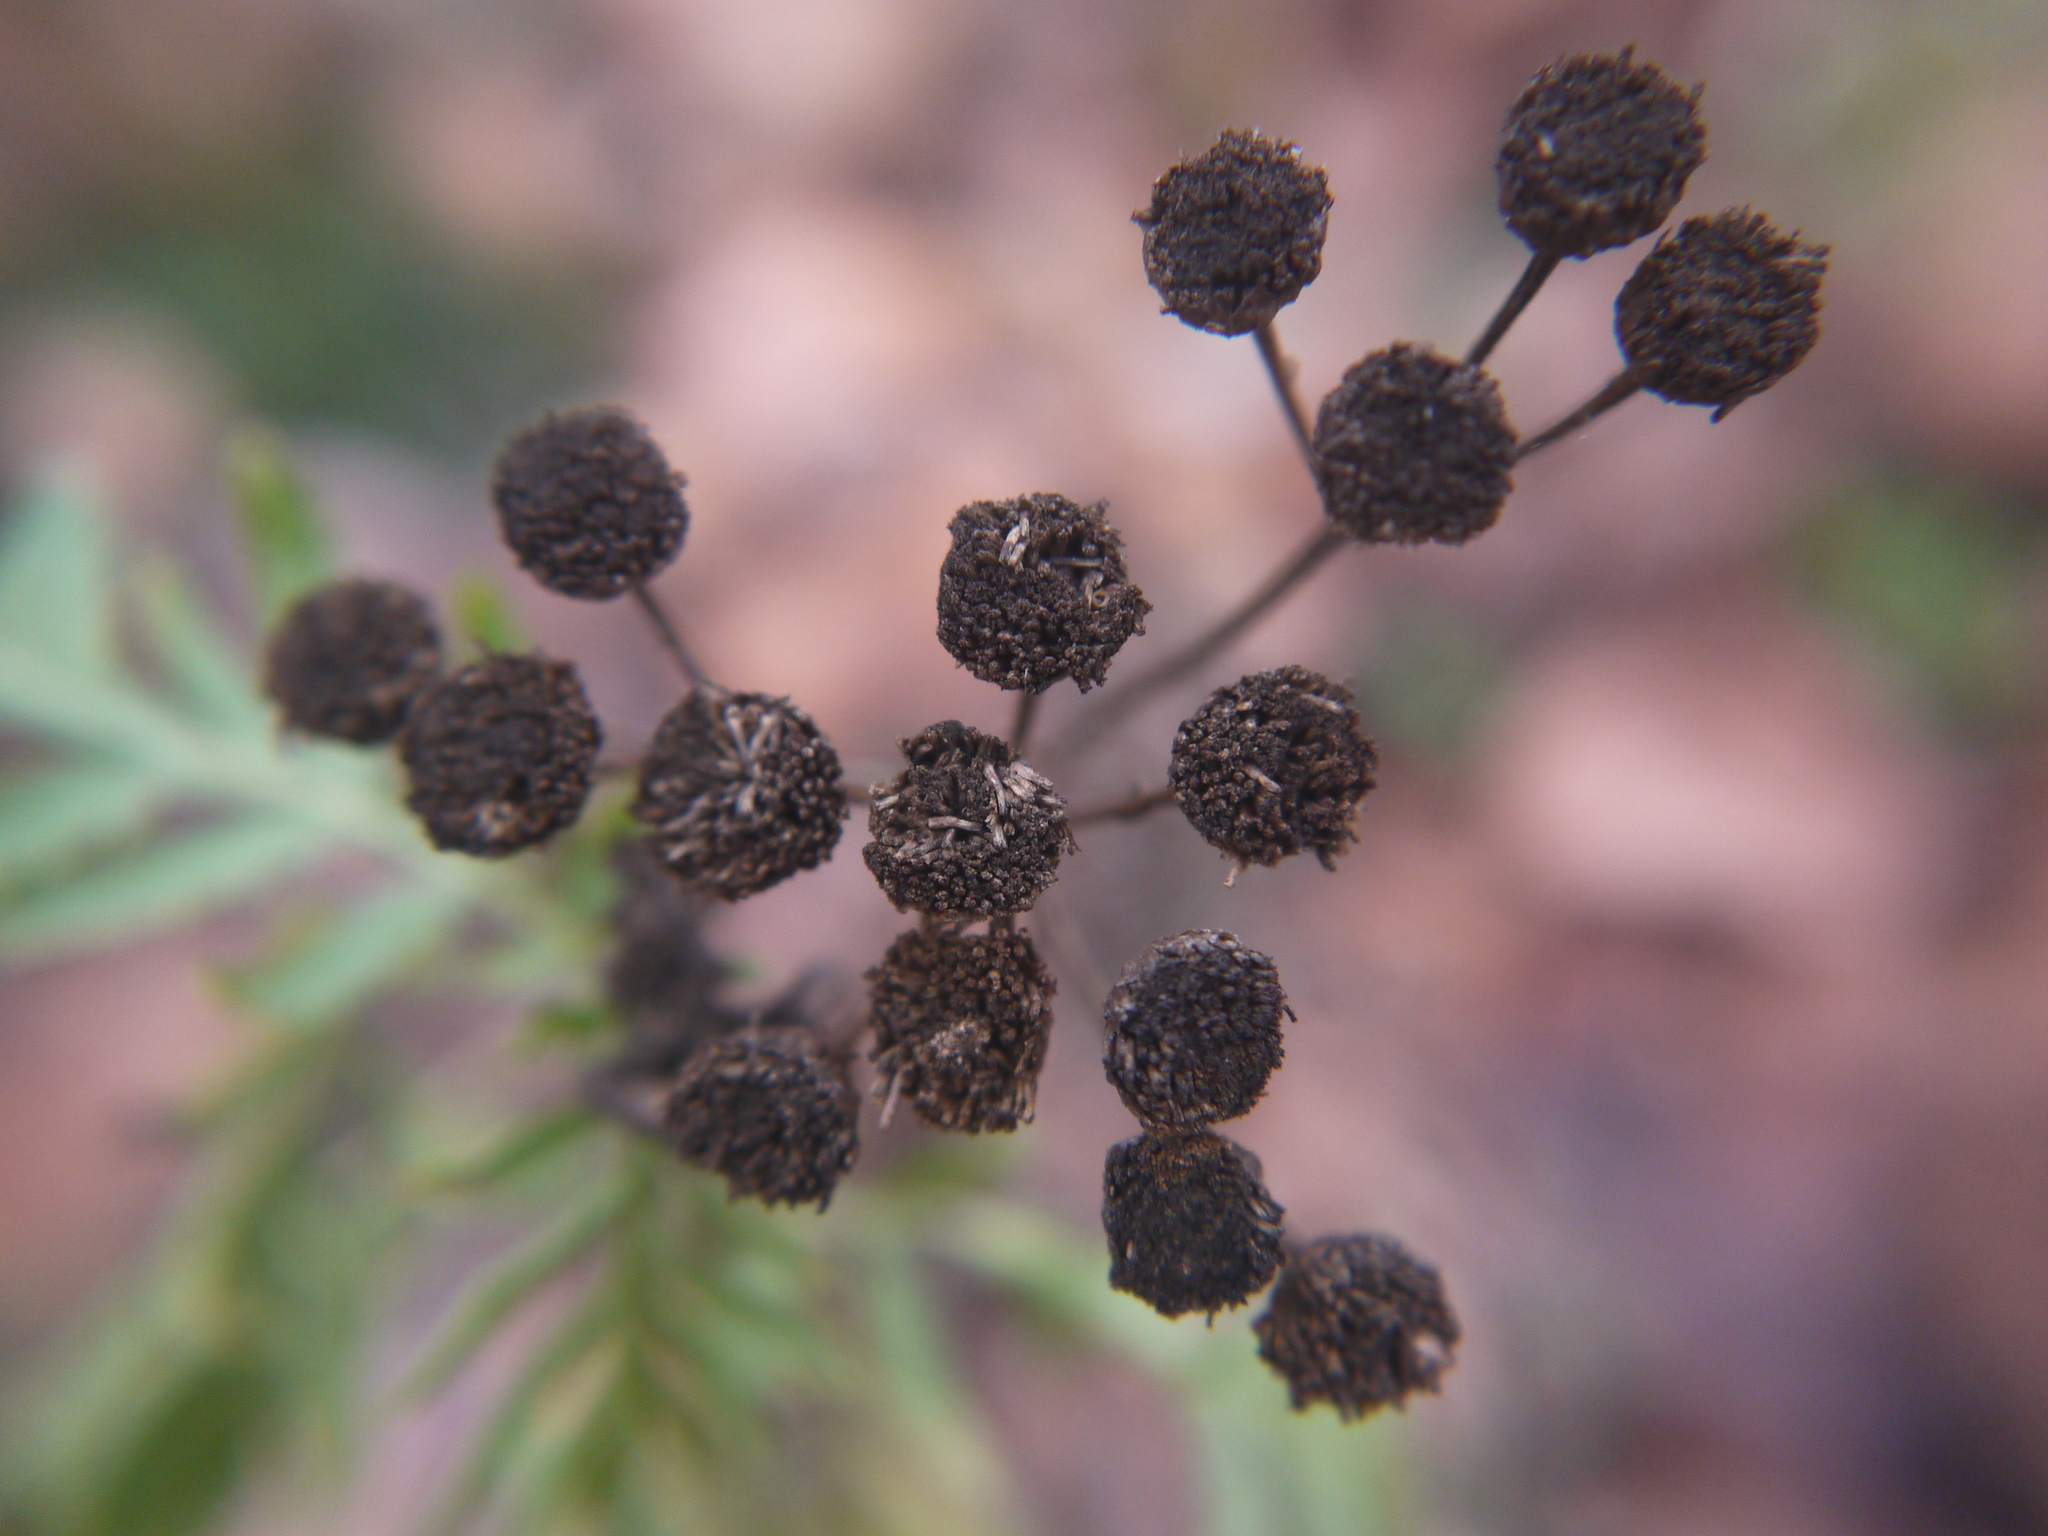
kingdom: Plantae
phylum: Tracheophyta
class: Magnoliopsida
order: Asterales
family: Asteraceae
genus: Tanacetum
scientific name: Tanacetum vulgare
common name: Common tansy
